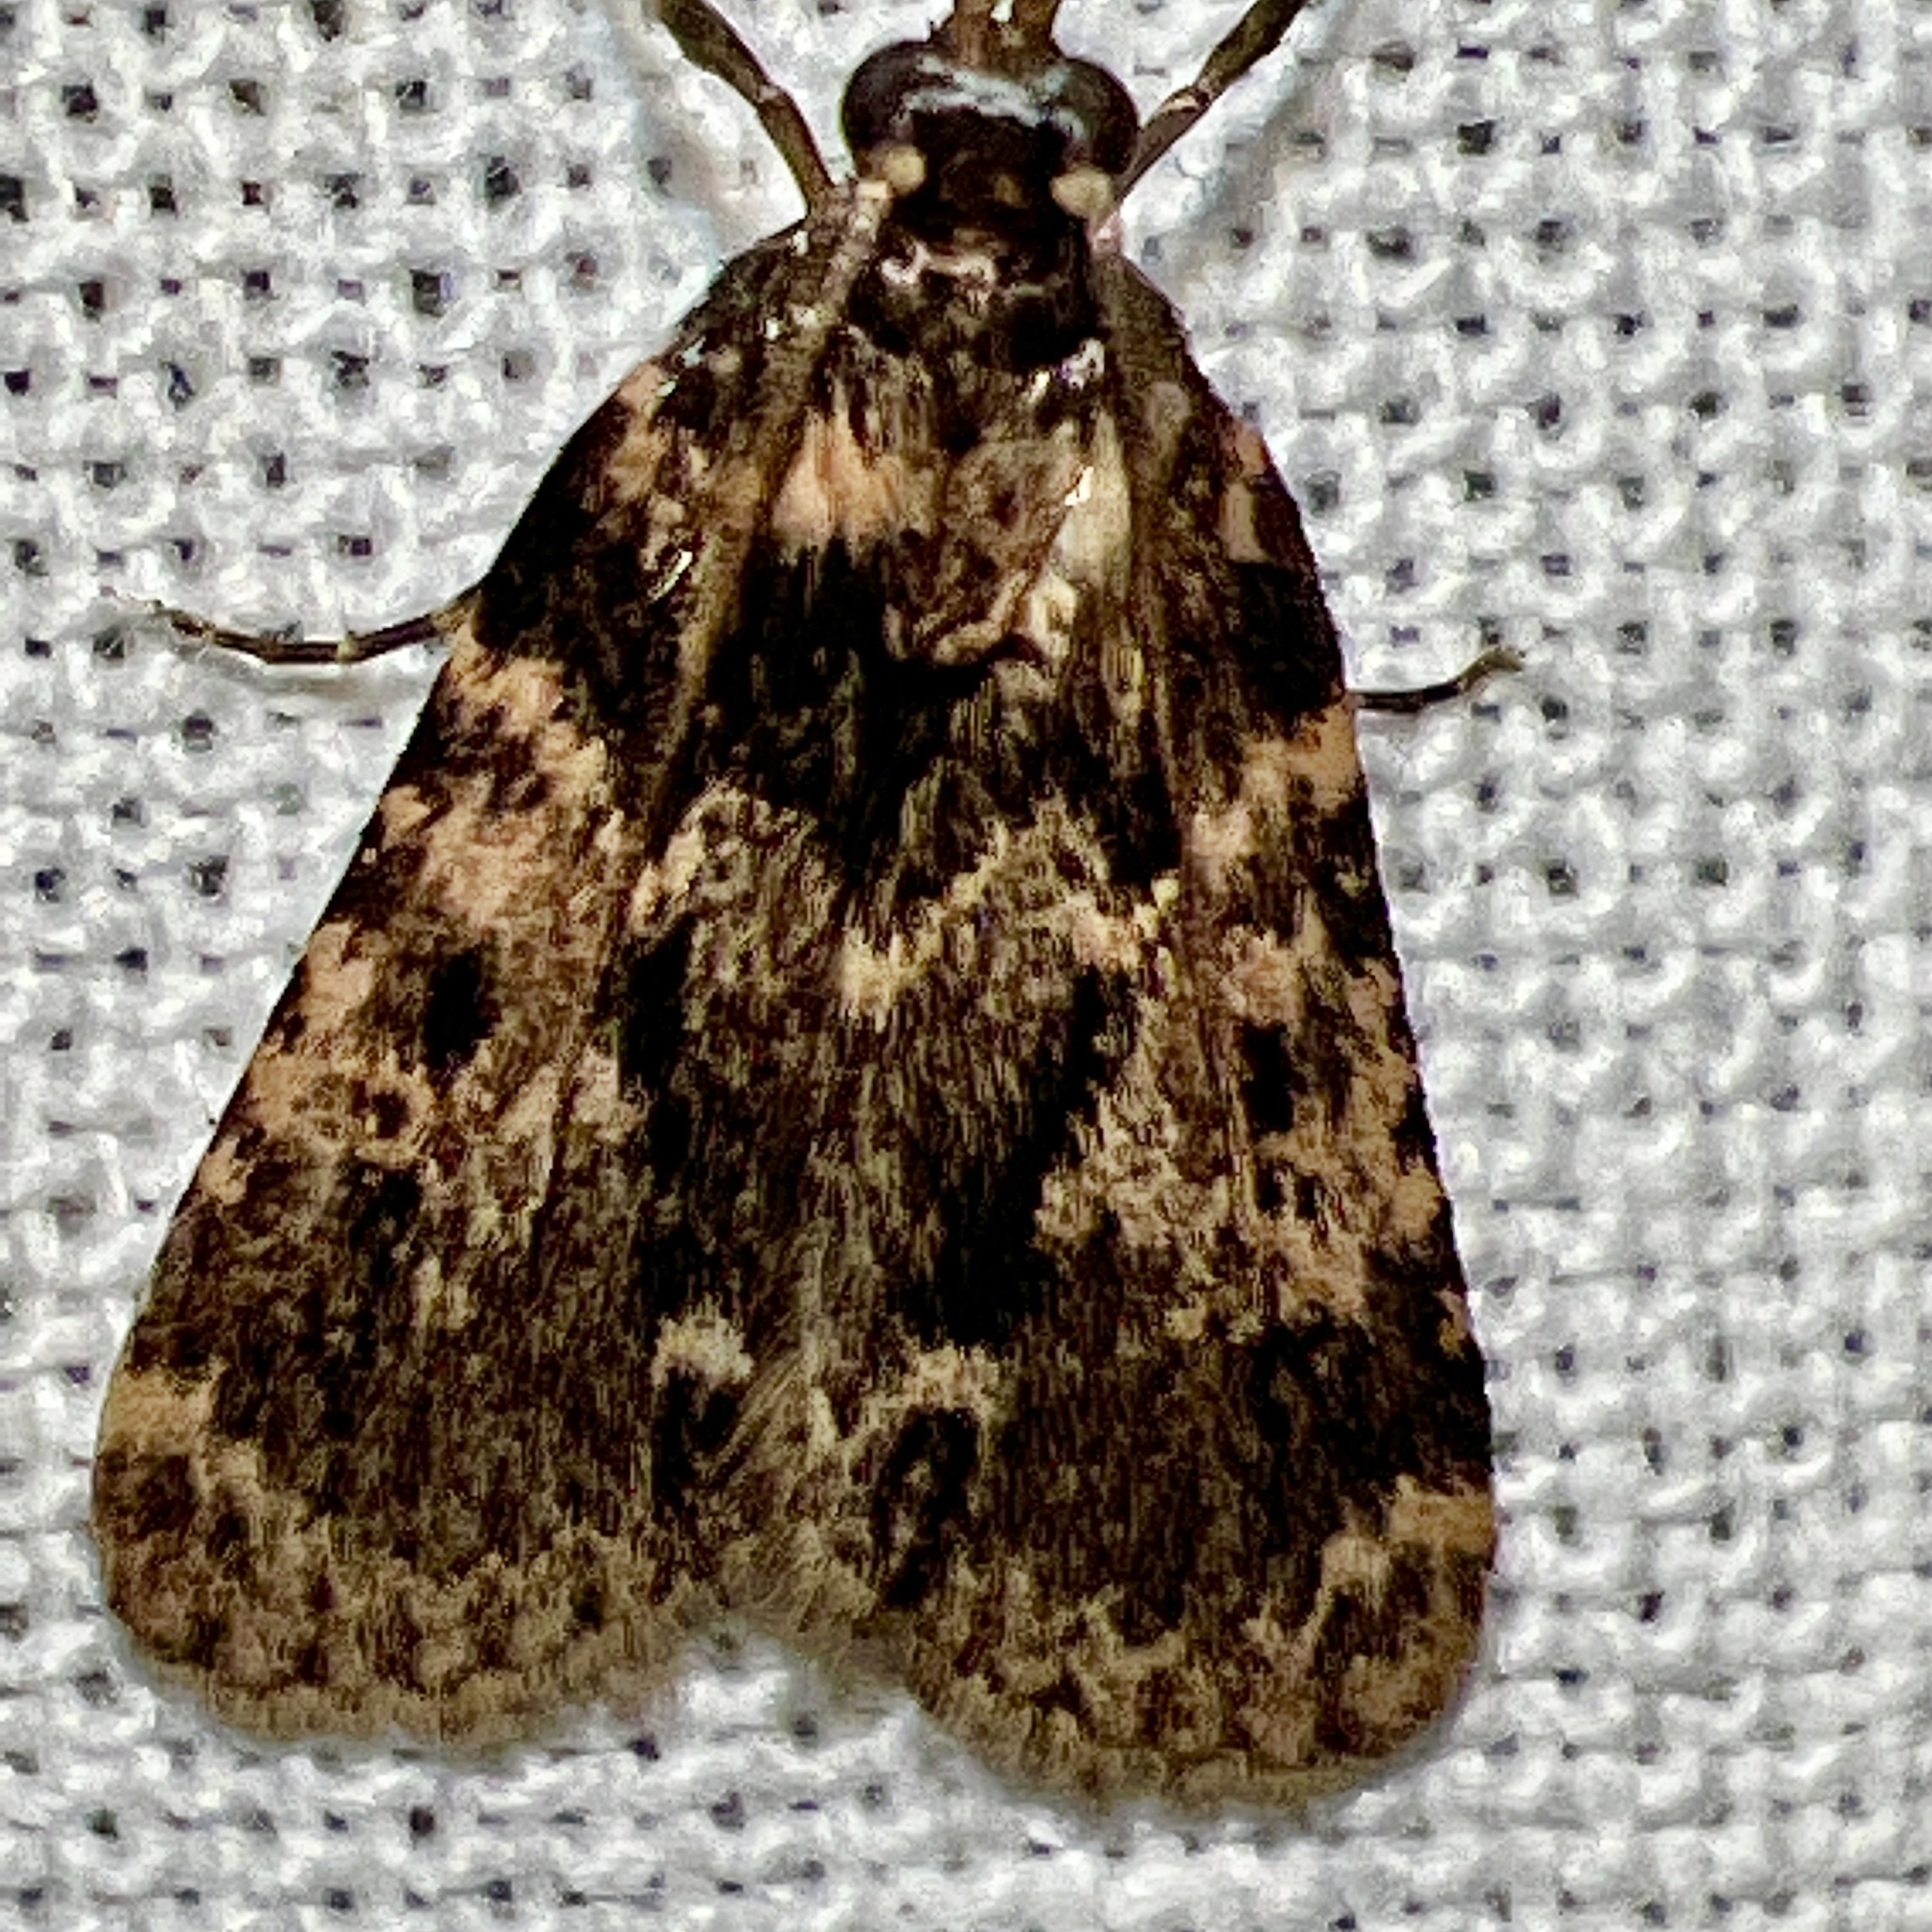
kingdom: Animalia
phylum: Arthropoda
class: Insecta
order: Lepidoptera
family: Pyralidae
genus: Aglossa
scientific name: Aglossa caprealis
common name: Small tabby
